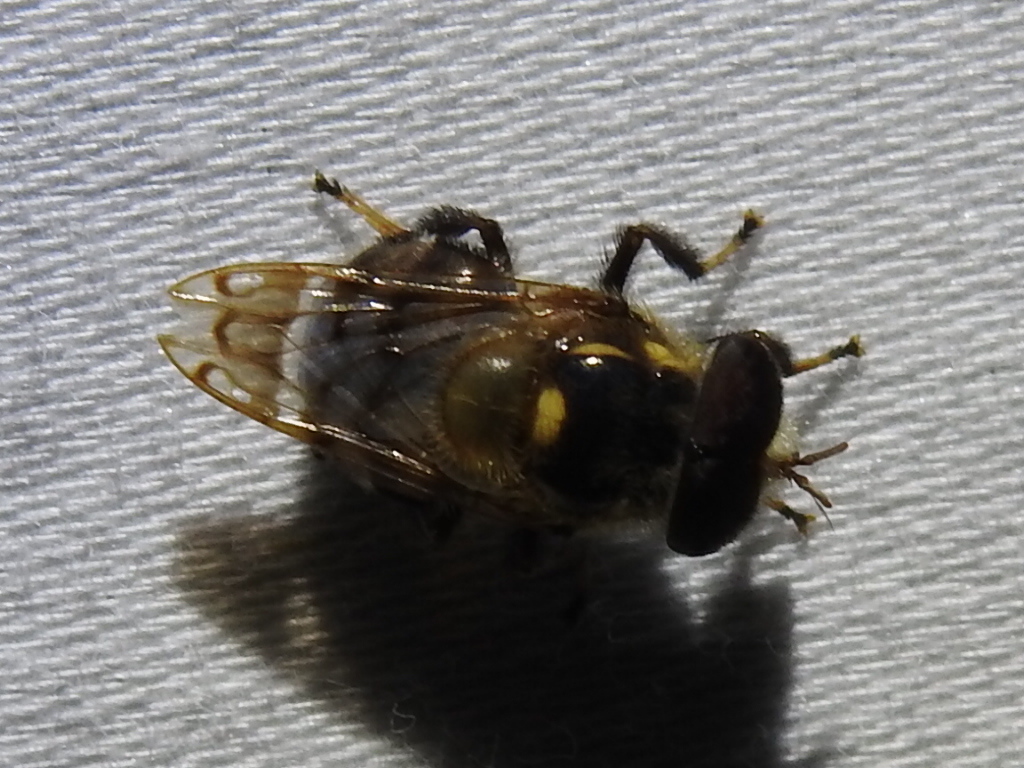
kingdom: Animalia
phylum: Arthropoda
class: Insecta
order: Diptera
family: Syrphidae
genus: Copestylum
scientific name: Copestylum tamaulipanum
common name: Syrphid fly
